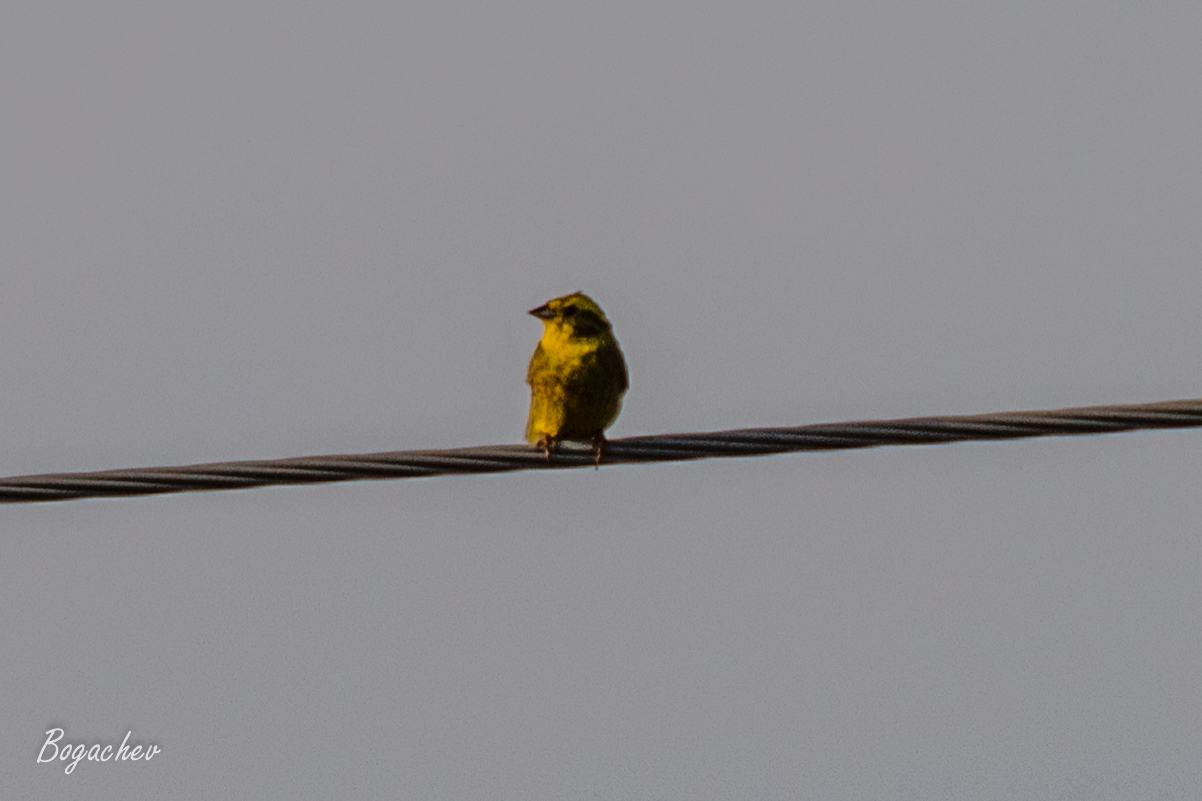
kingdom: Animalia
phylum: Chordata
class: Aves
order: Passeriformes
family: Emberizidae
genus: Emberiza
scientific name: Emberiza citrinella
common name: Yellowhammer
